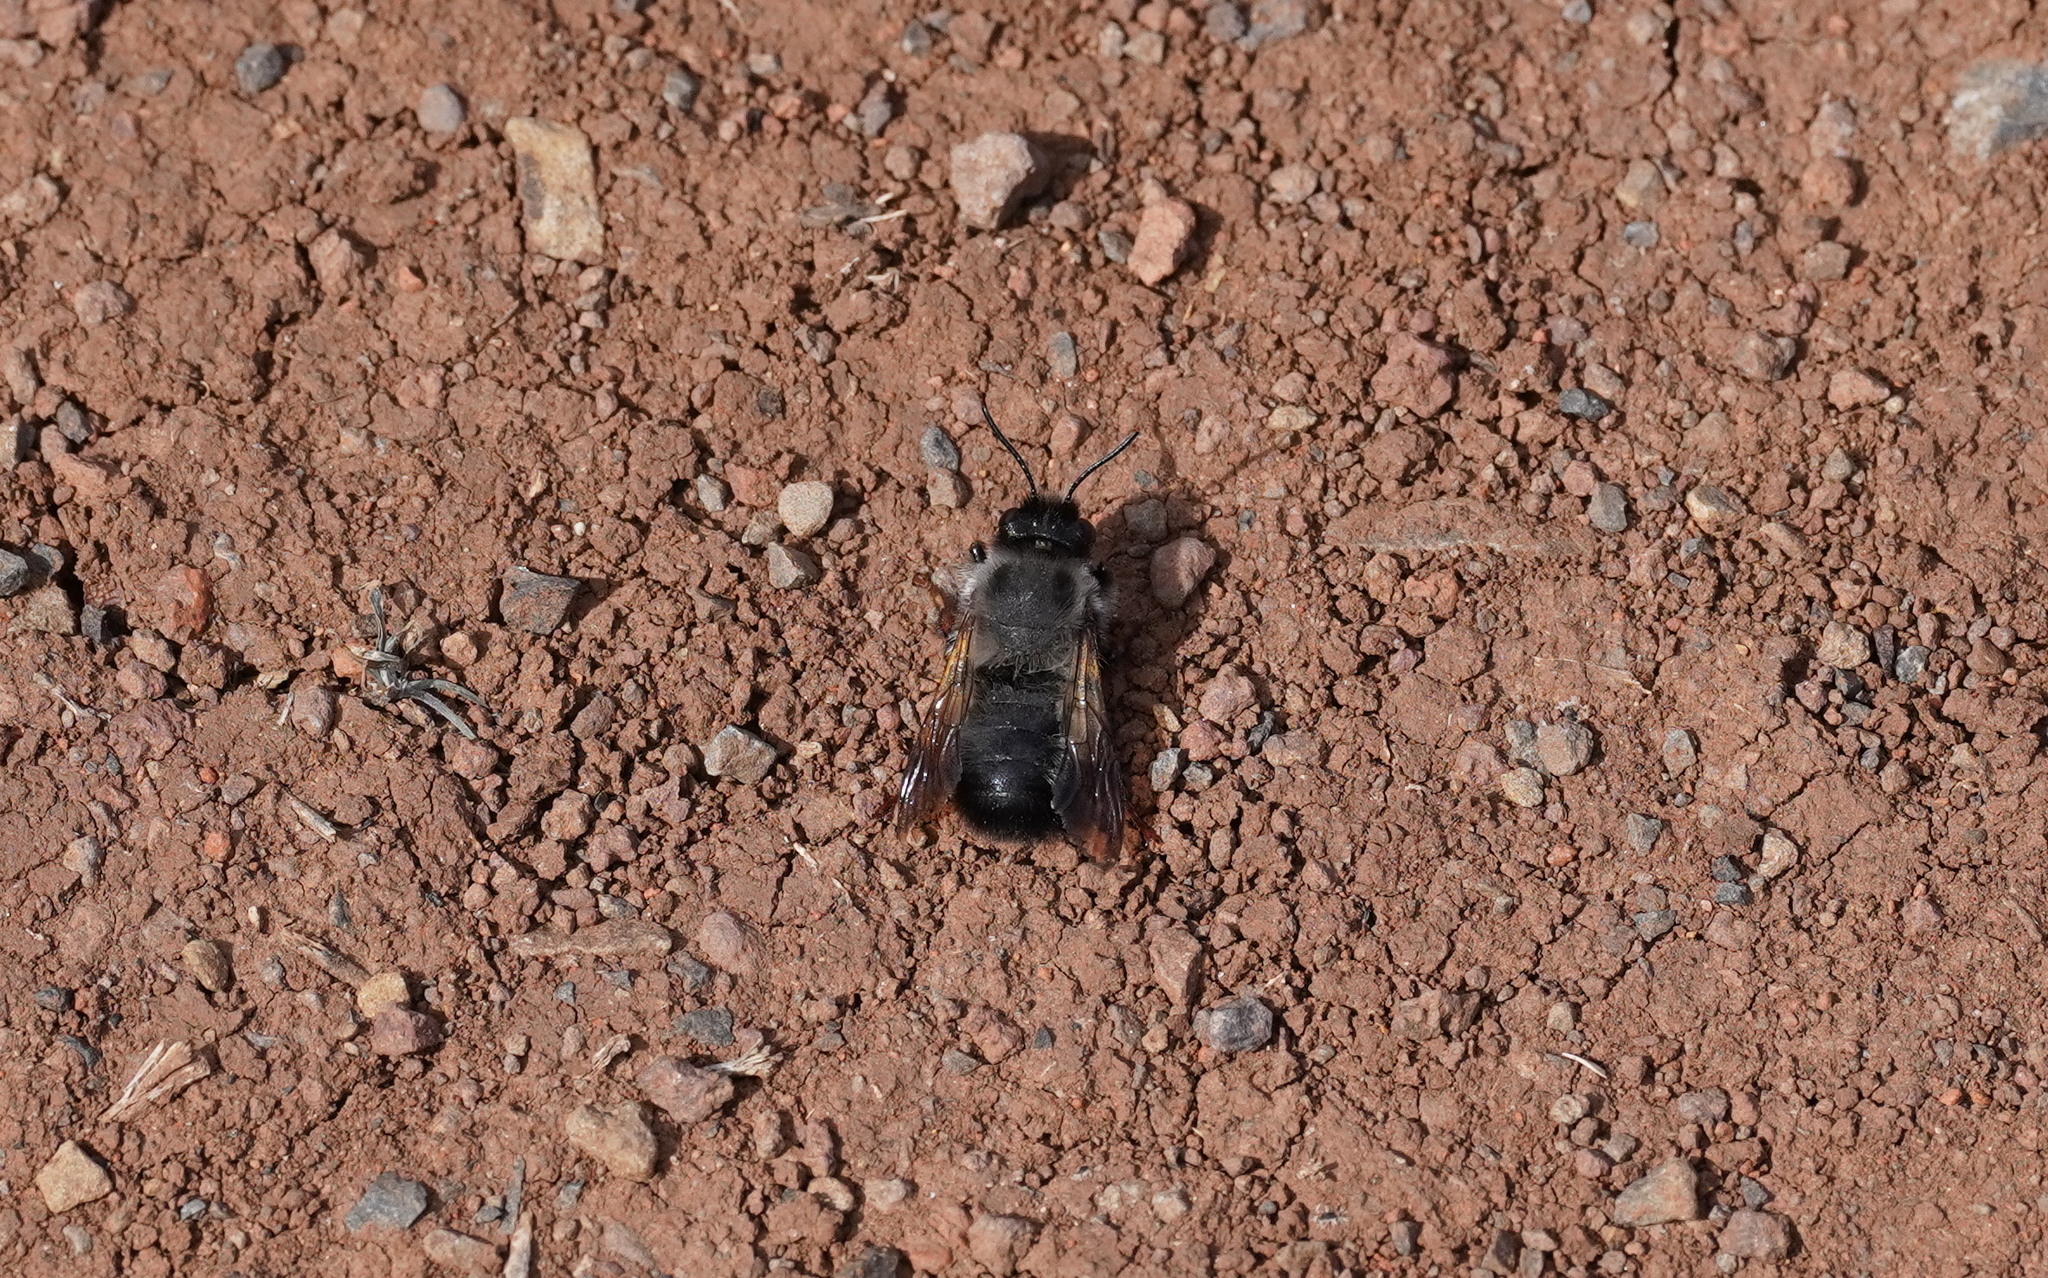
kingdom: Animalia
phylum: Arthropoda
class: Insecta
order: Hymenoptera
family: Megachilidae
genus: Megachile
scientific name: Megachile canescens
